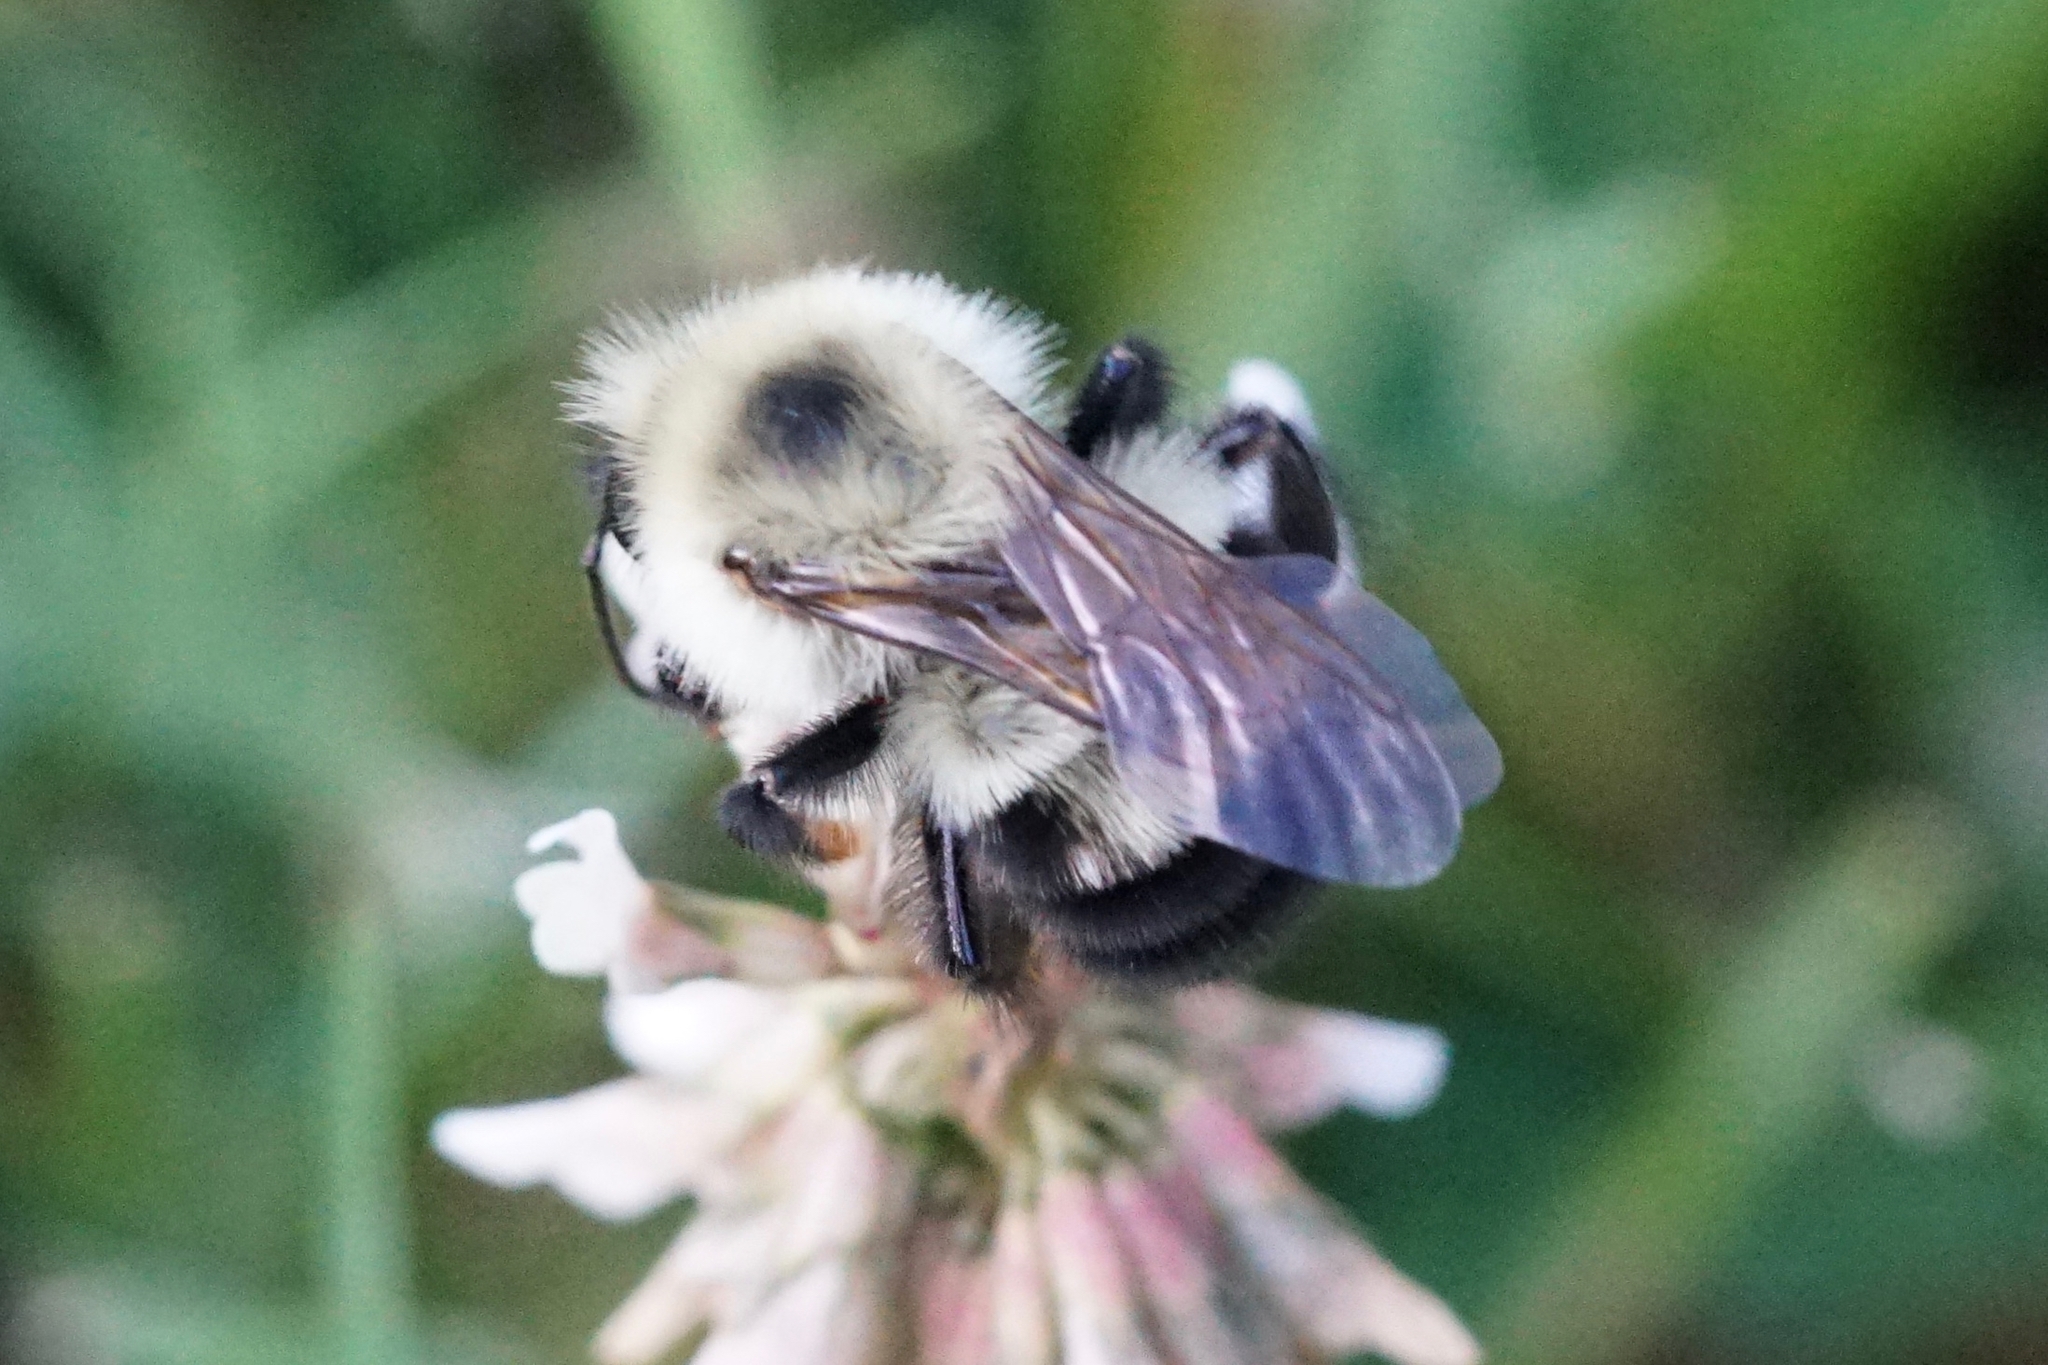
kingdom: Animalia
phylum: Arthropoda
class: Insecta
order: Hymenoptera
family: Apidae
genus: Bombus
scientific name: Bombus bimaculatus
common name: Two-spotted bumble bee
